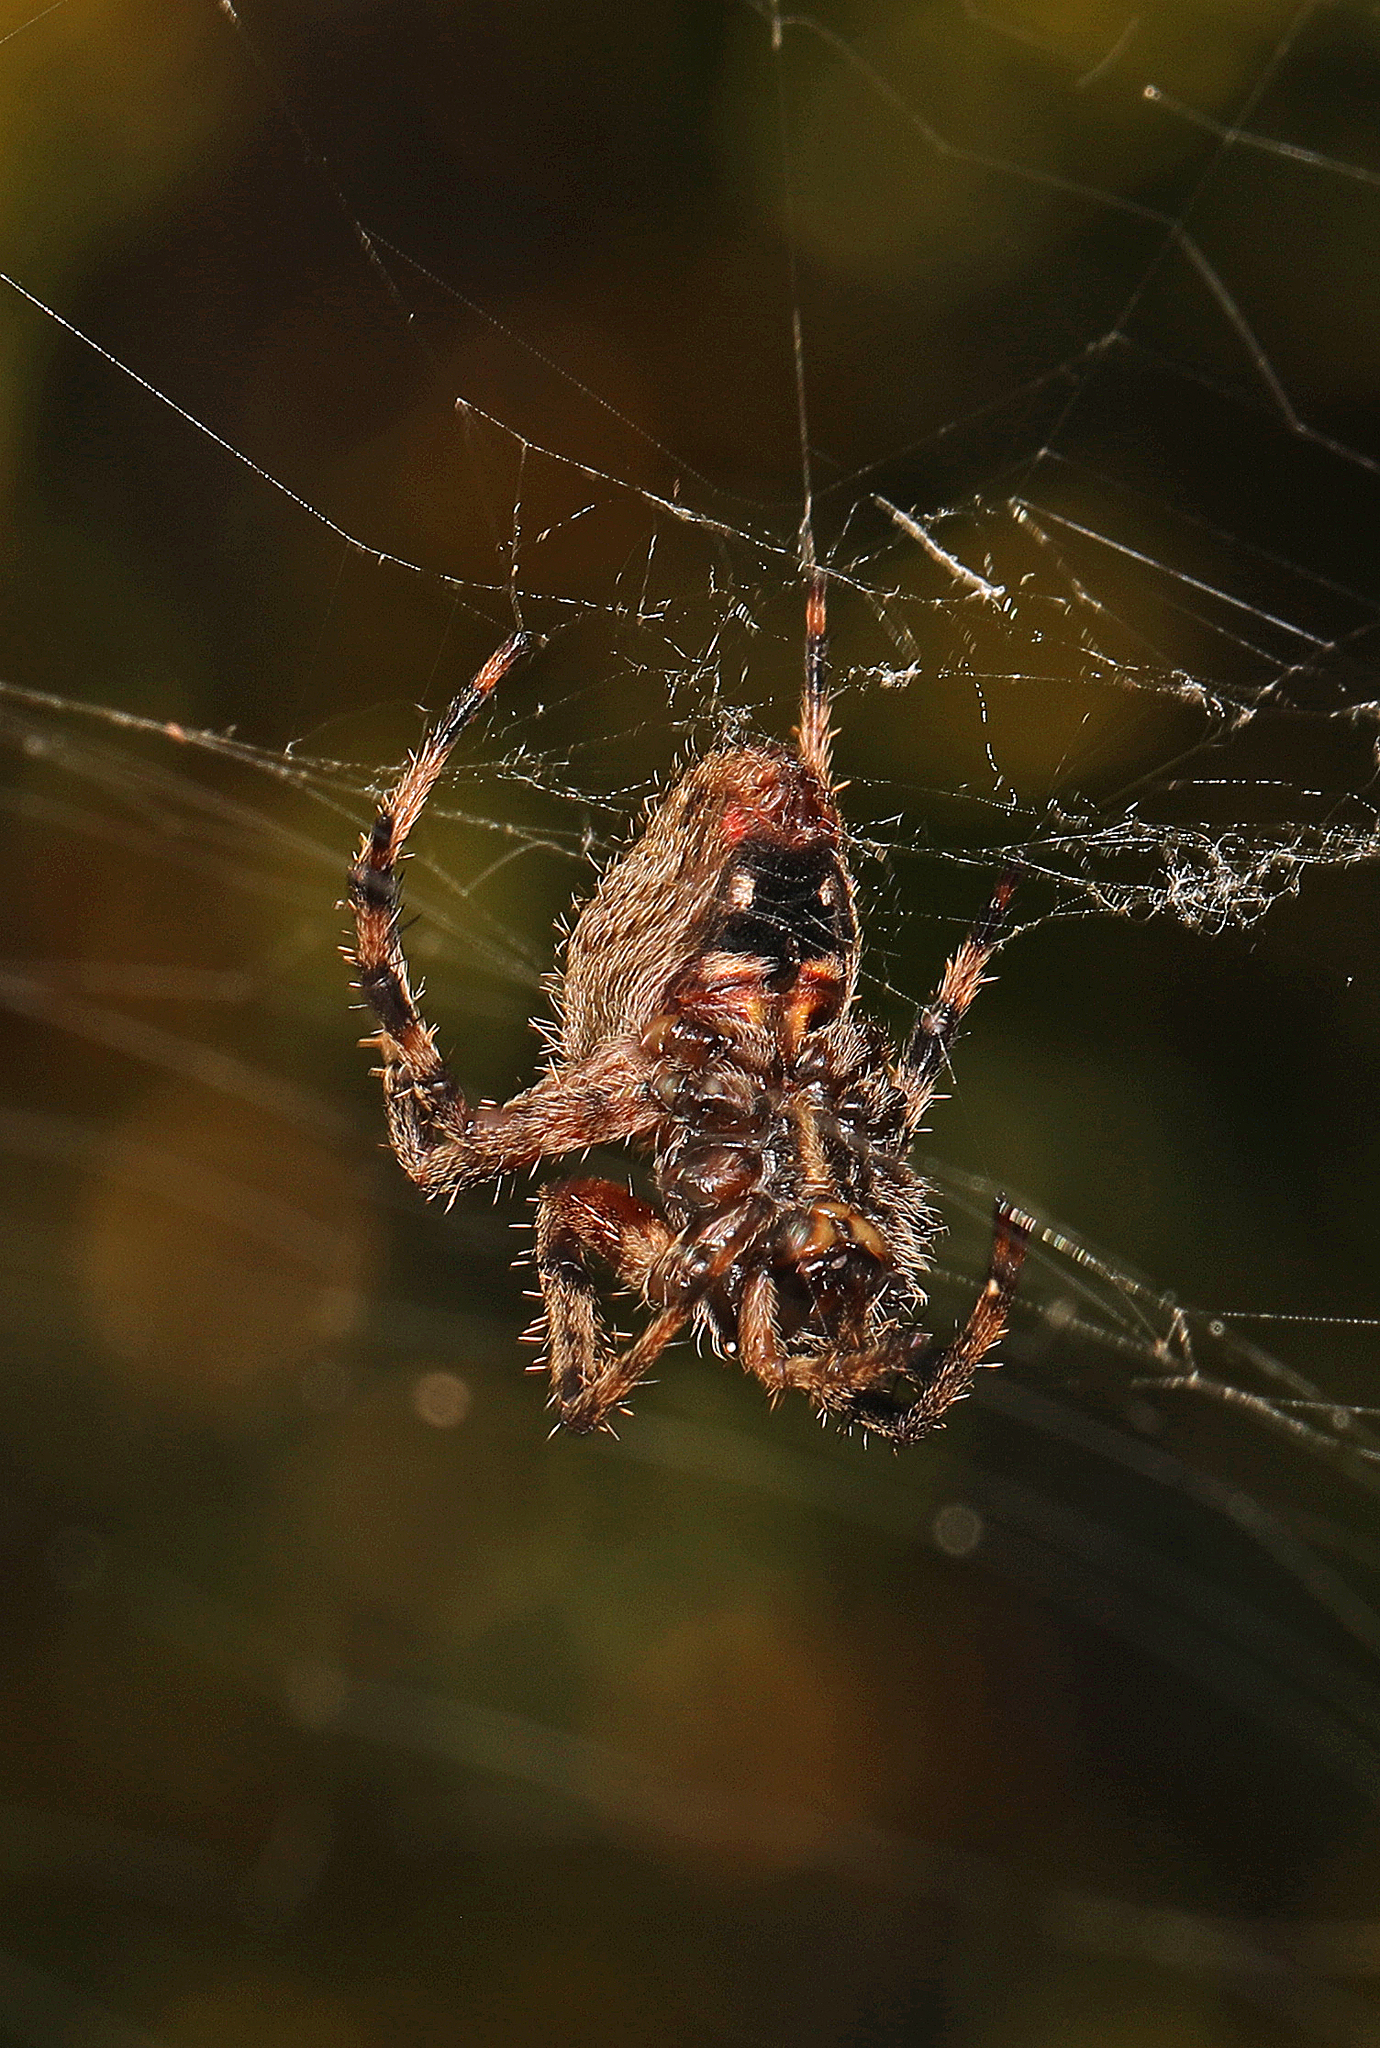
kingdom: Animalia
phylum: Arthropoda
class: Arachnida
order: Araneae
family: Araneidae
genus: Neoscona
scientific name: Neoscona crucifera
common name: Spotted orbweaver
